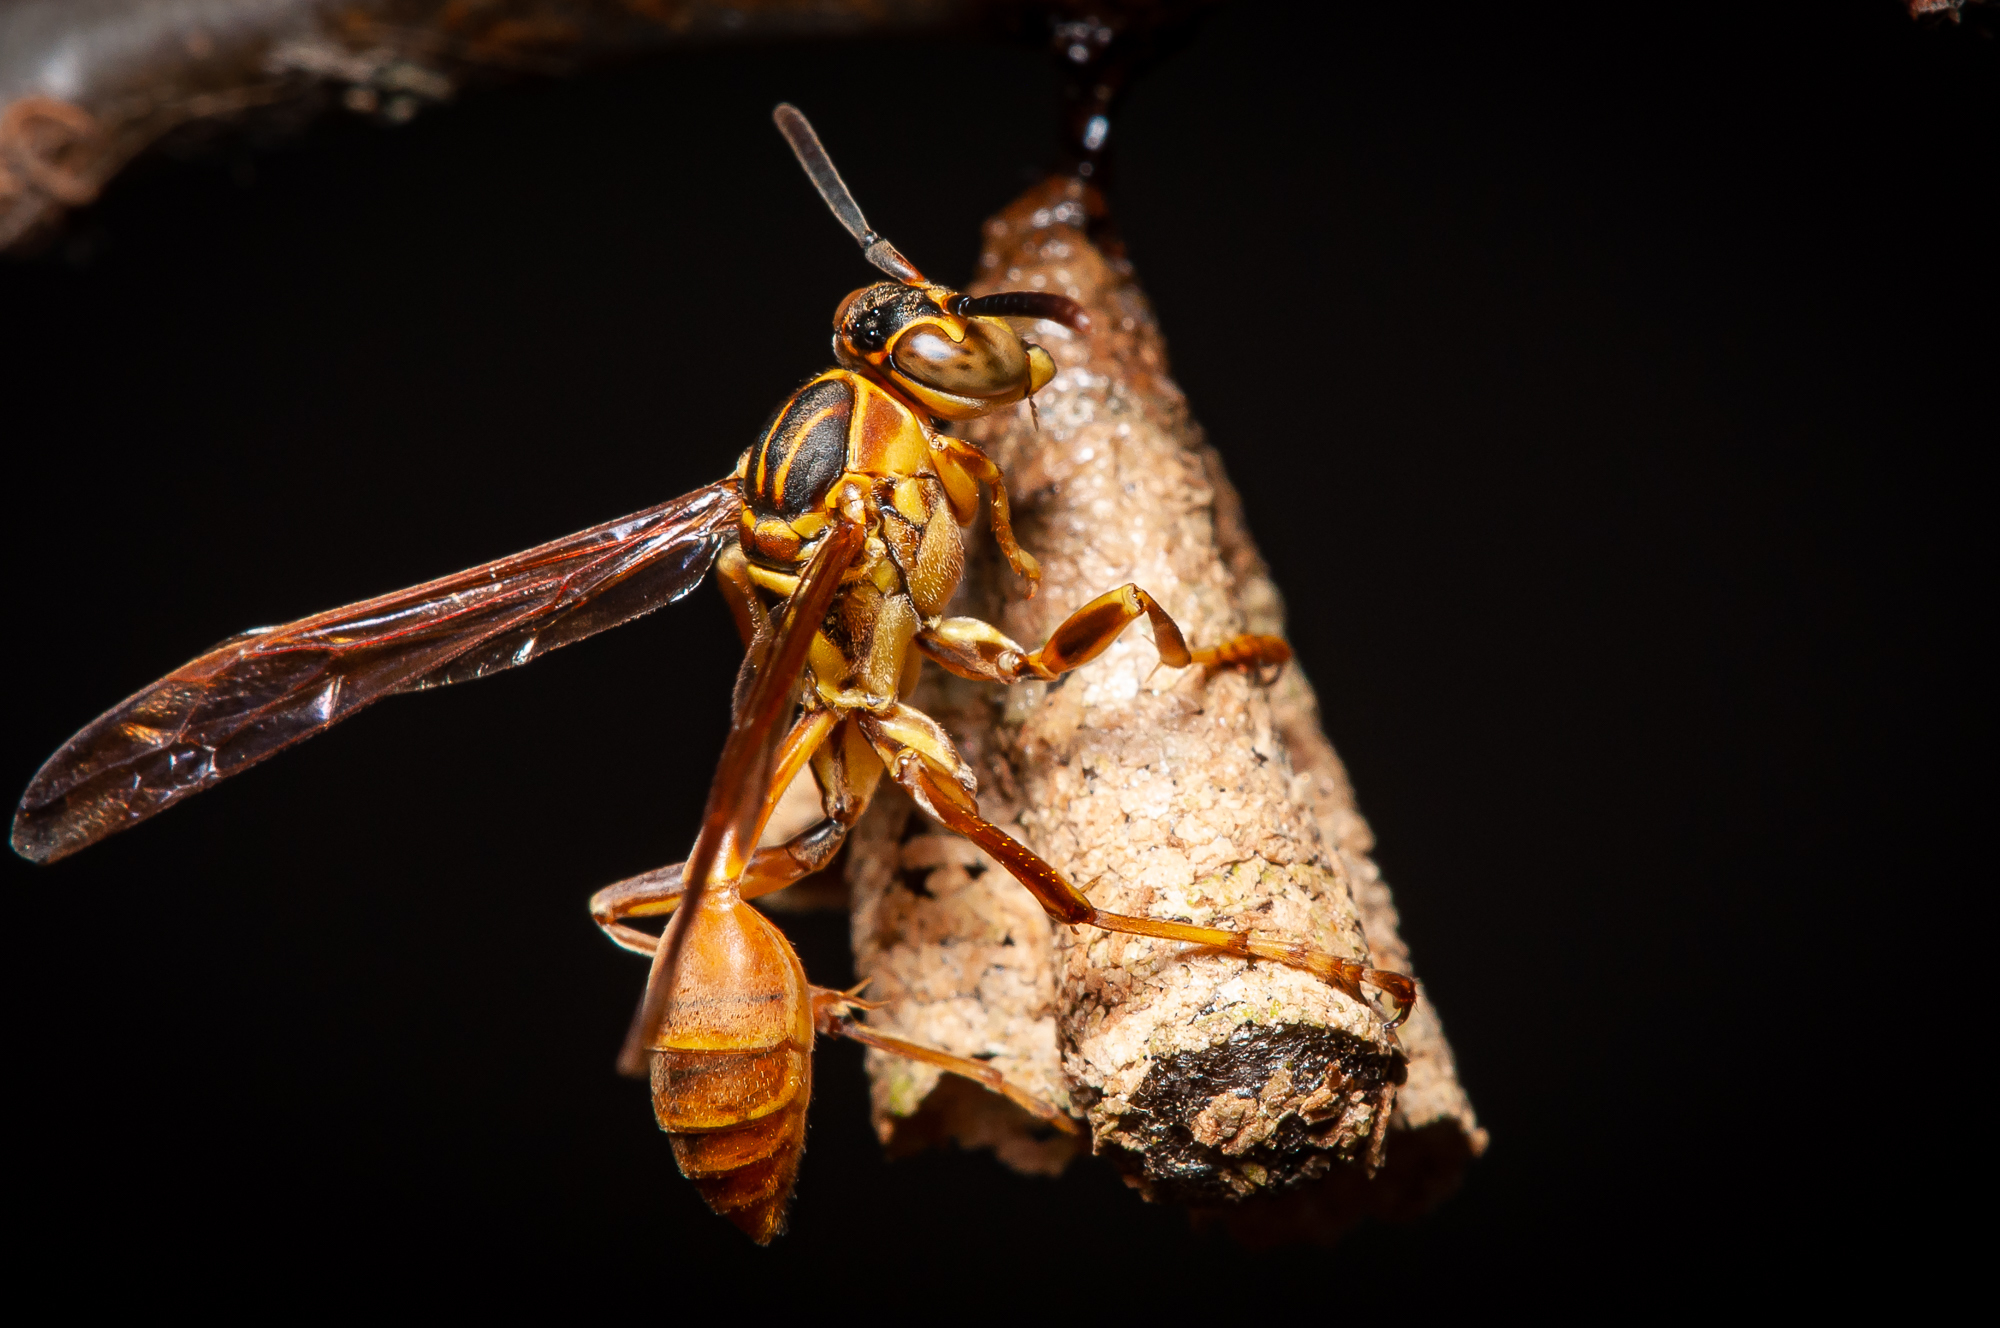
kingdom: Animalia
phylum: Arthropoda
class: Insecta
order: Hymenoptera
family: Vespidae
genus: Mischocyttarus
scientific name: Mischocyttarus angulatus
